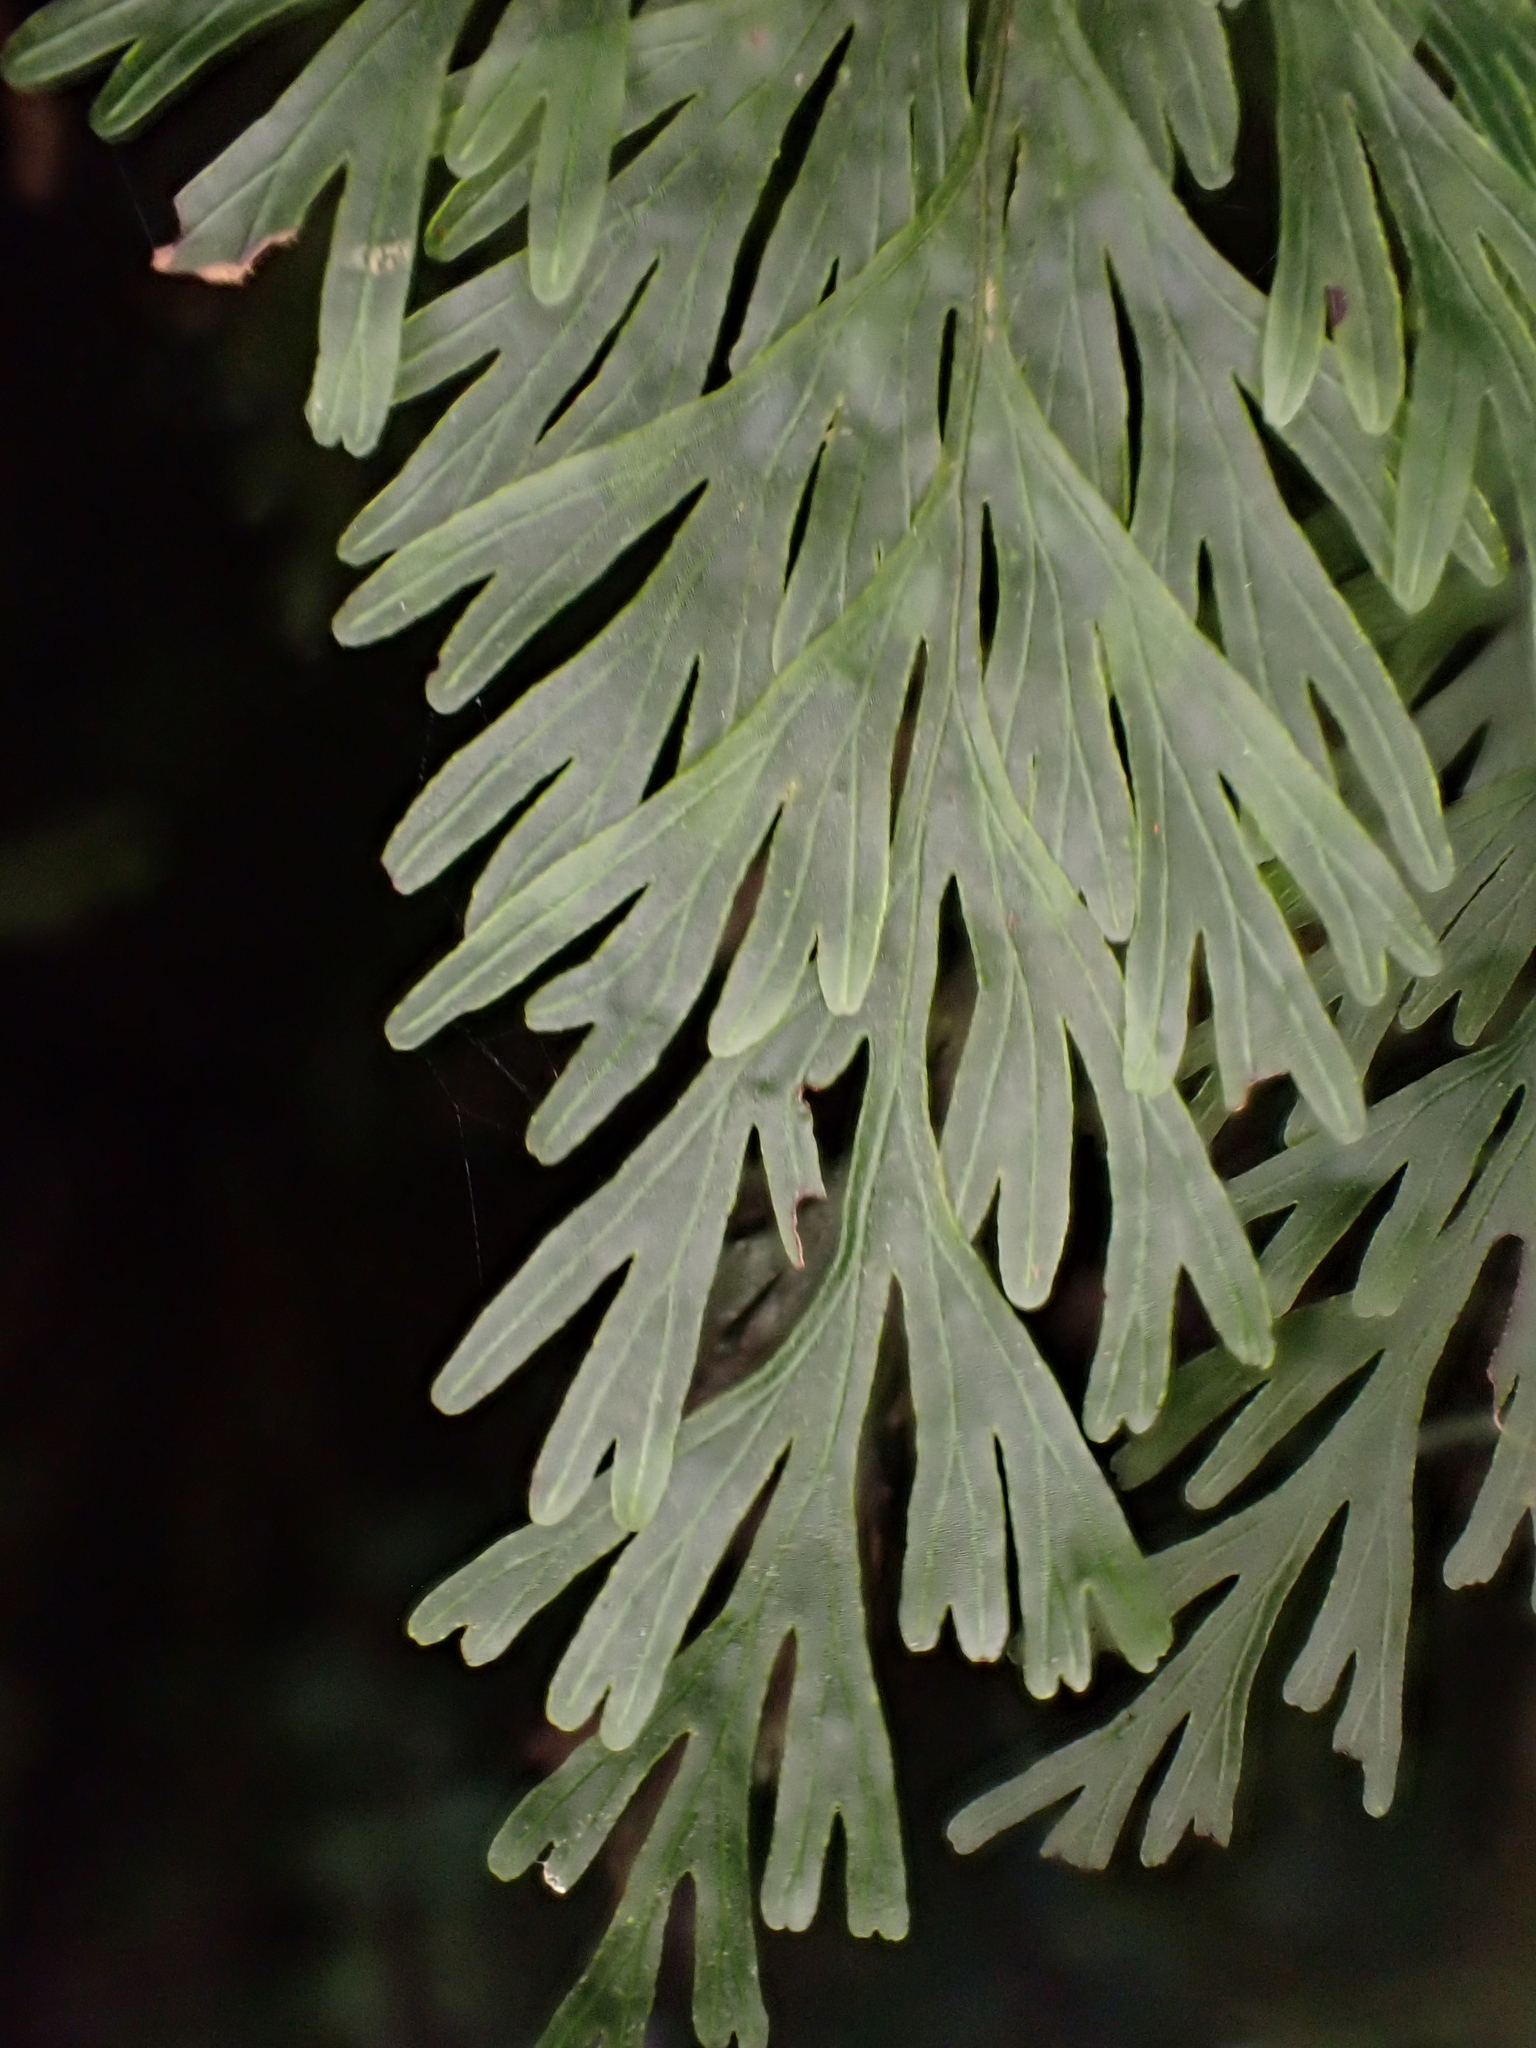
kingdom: Plantae
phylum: Tracheophyta
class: Polypodiopsida
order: Hymenophyllales
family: Hymenophyllaceae
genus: Hymenophyllum
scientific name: Hymenophyllum demissum
